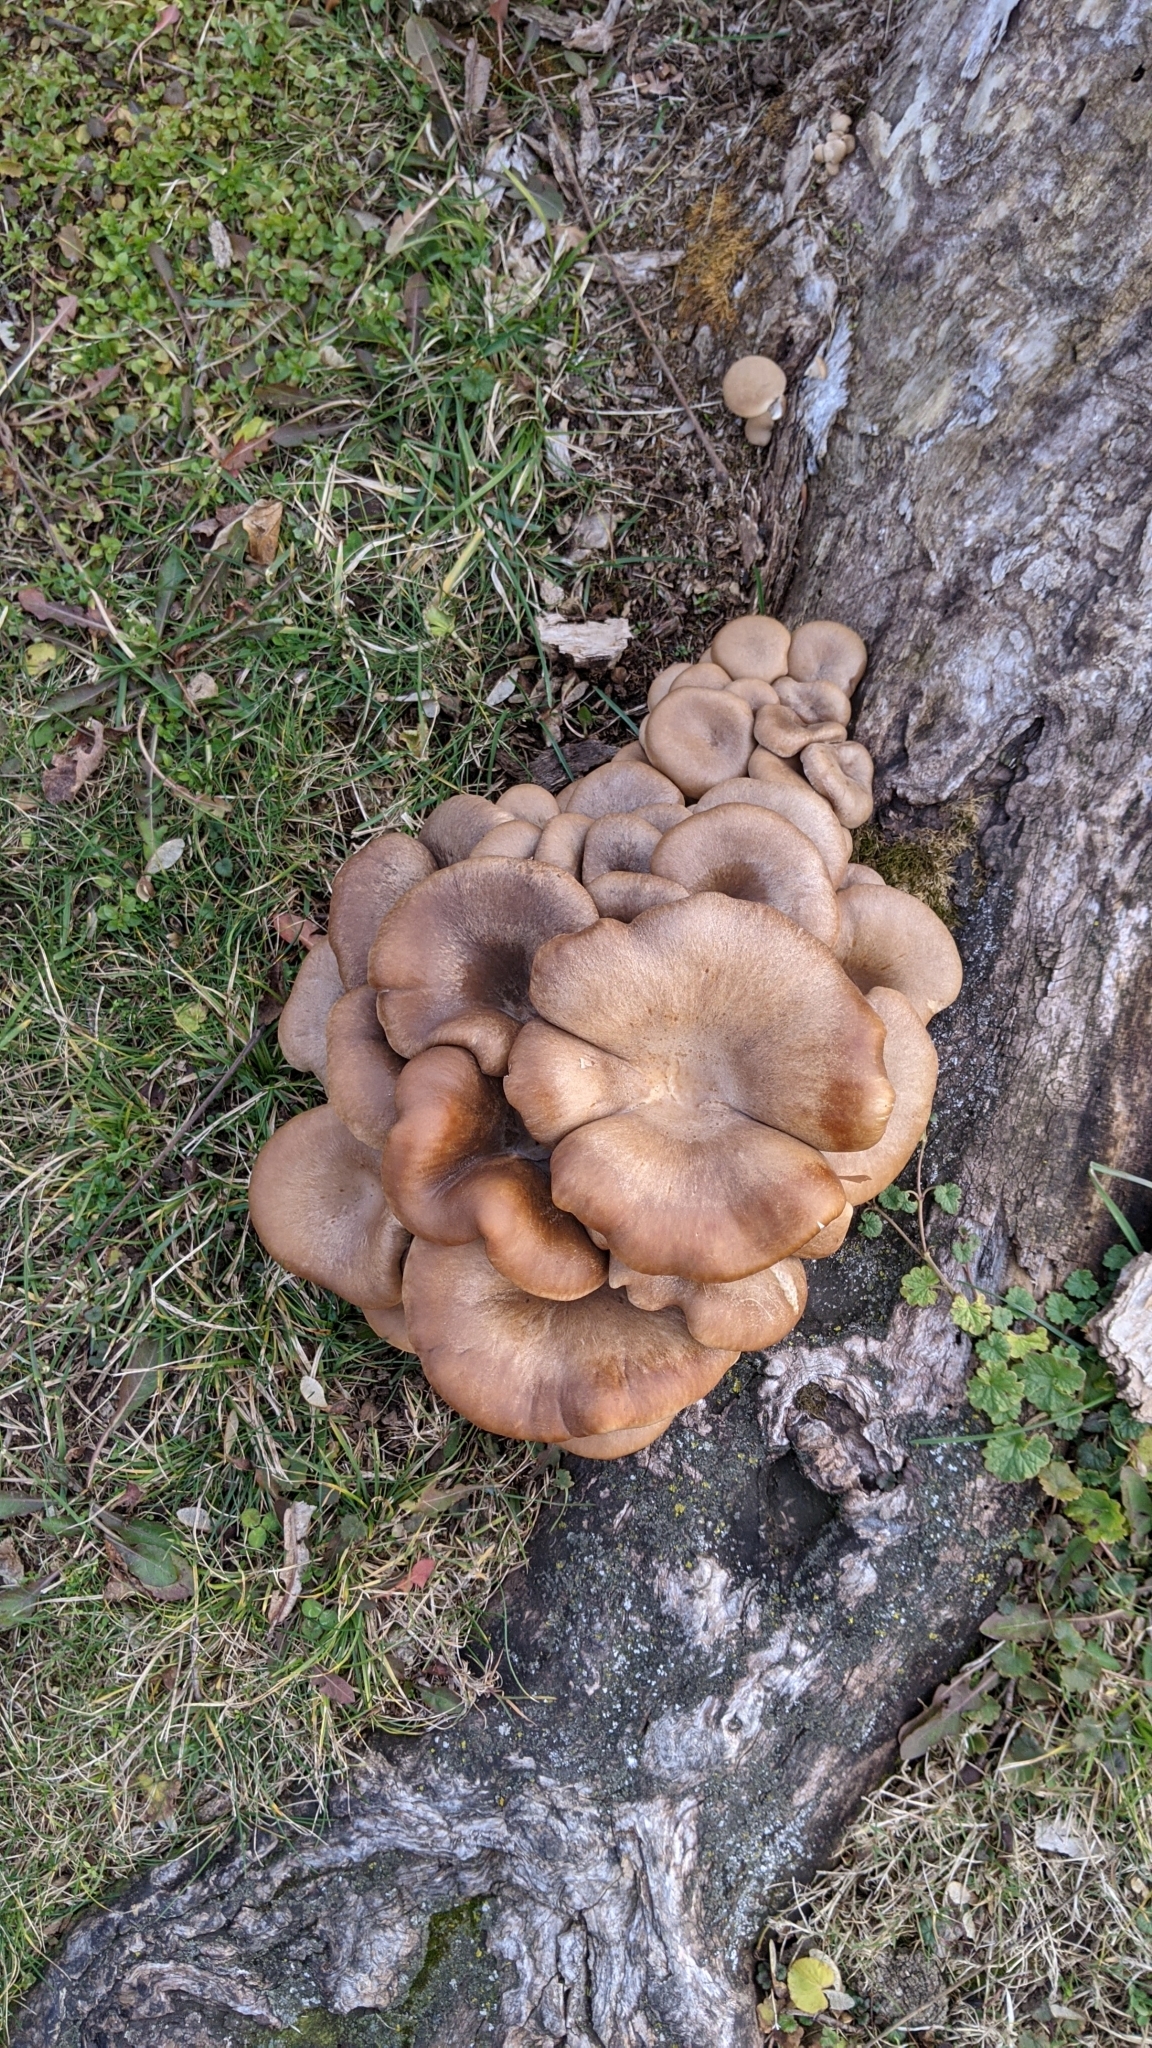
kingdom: Fungi
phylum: Basidiomycota
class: Agaricomycetes
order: Agaricales
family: Pleurotaceae
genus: Pleurotus
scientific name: Pleurotus ostreatus
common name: Oyster mushroom
